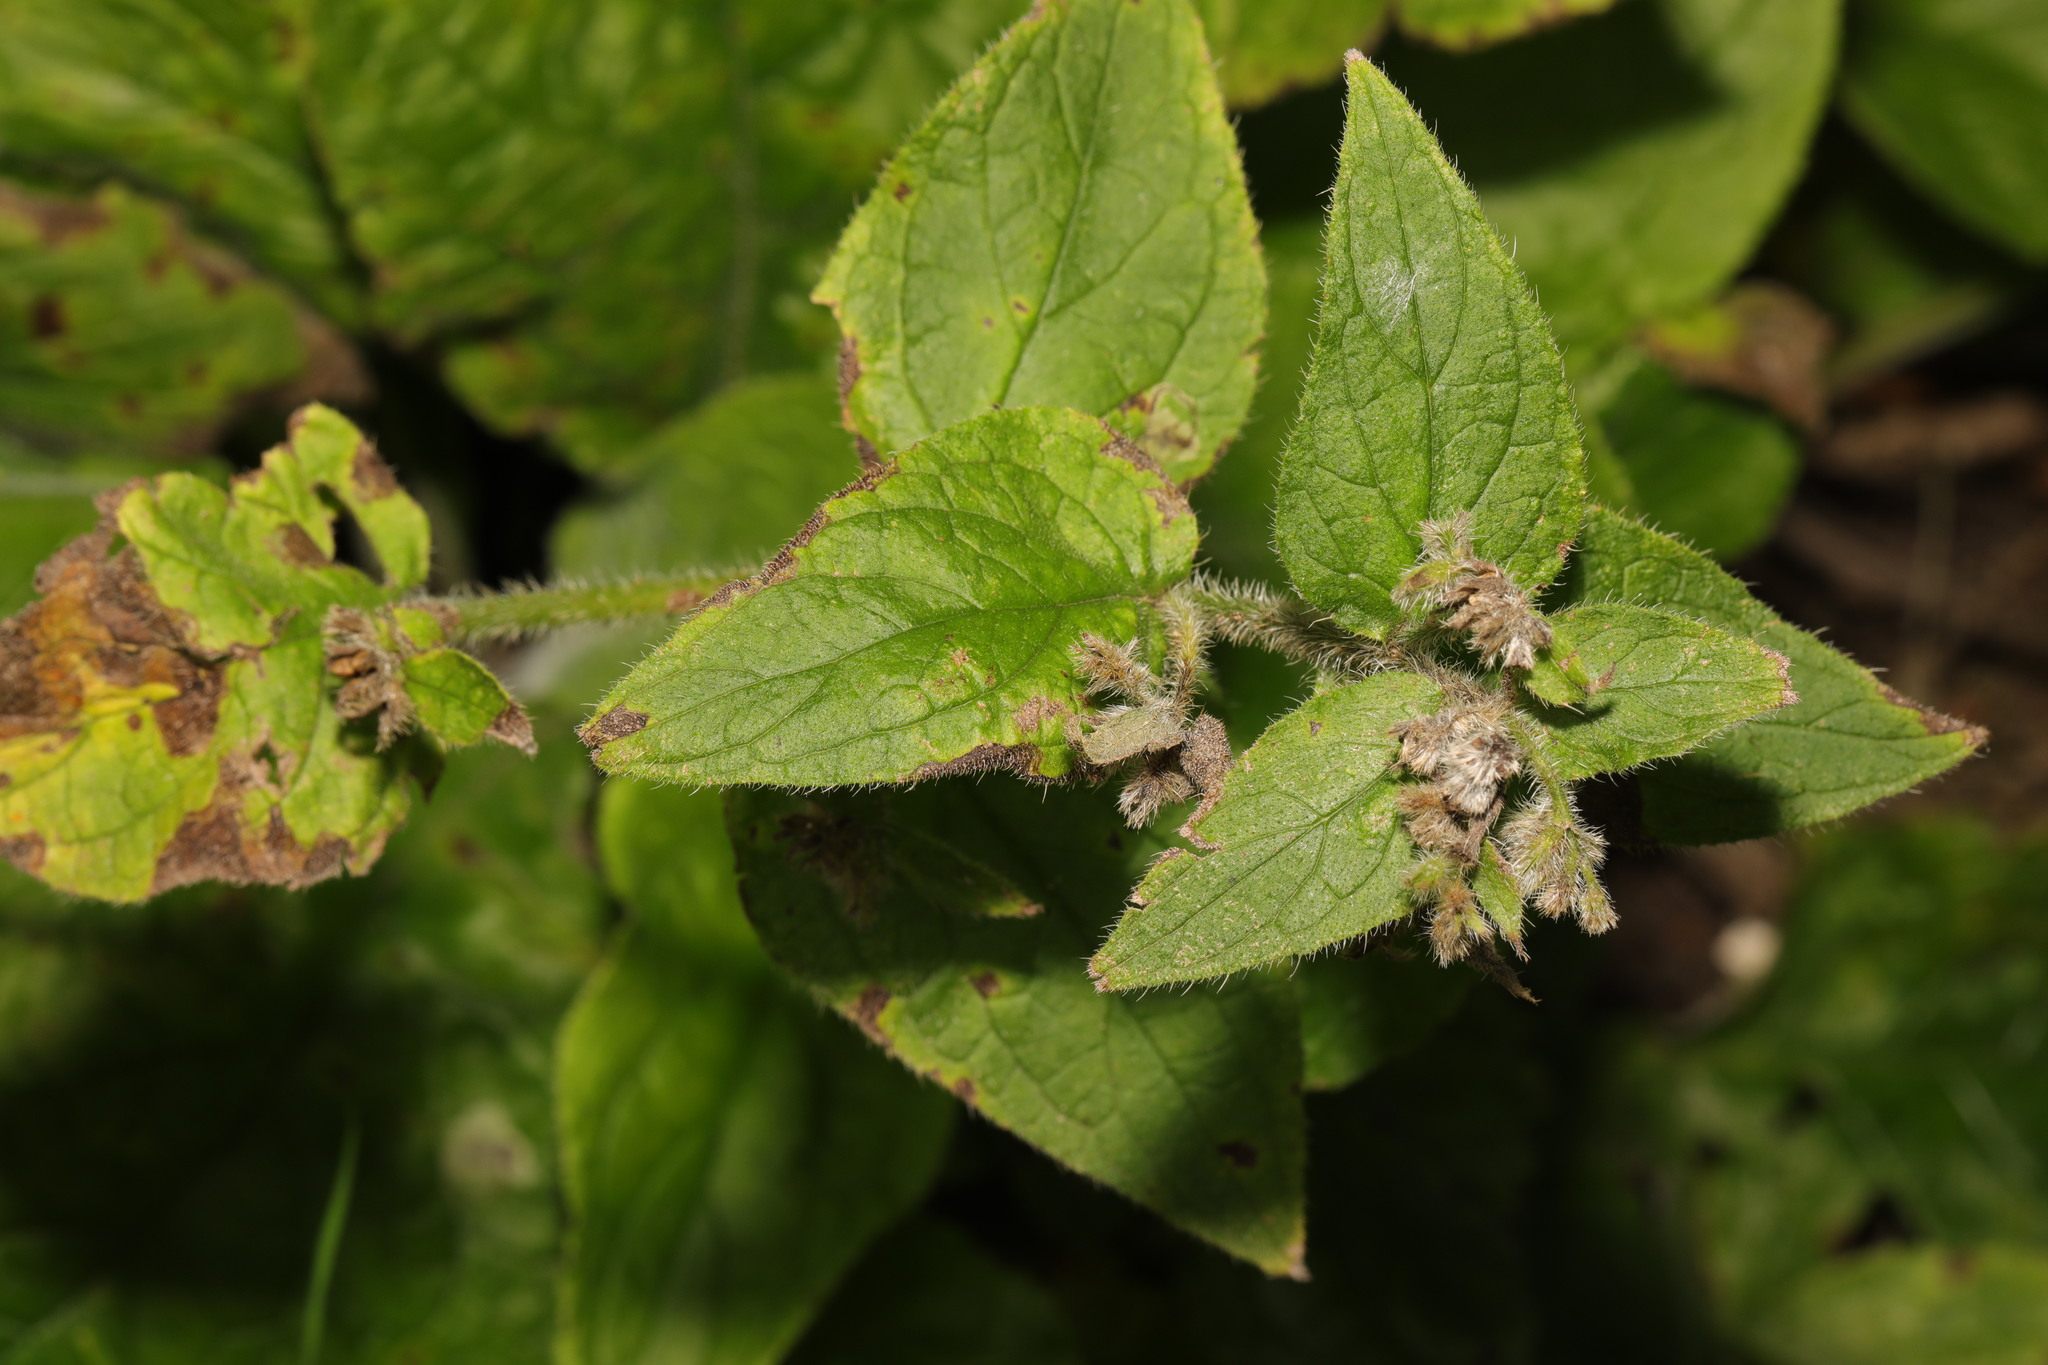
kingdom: Plantae
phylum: Tracheophyta
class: Magnoliopsida
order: Boraginales
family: Boraginaceae
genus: Pentaglottis
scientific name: Pentaglottis sempervirens
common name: Green alkanet
